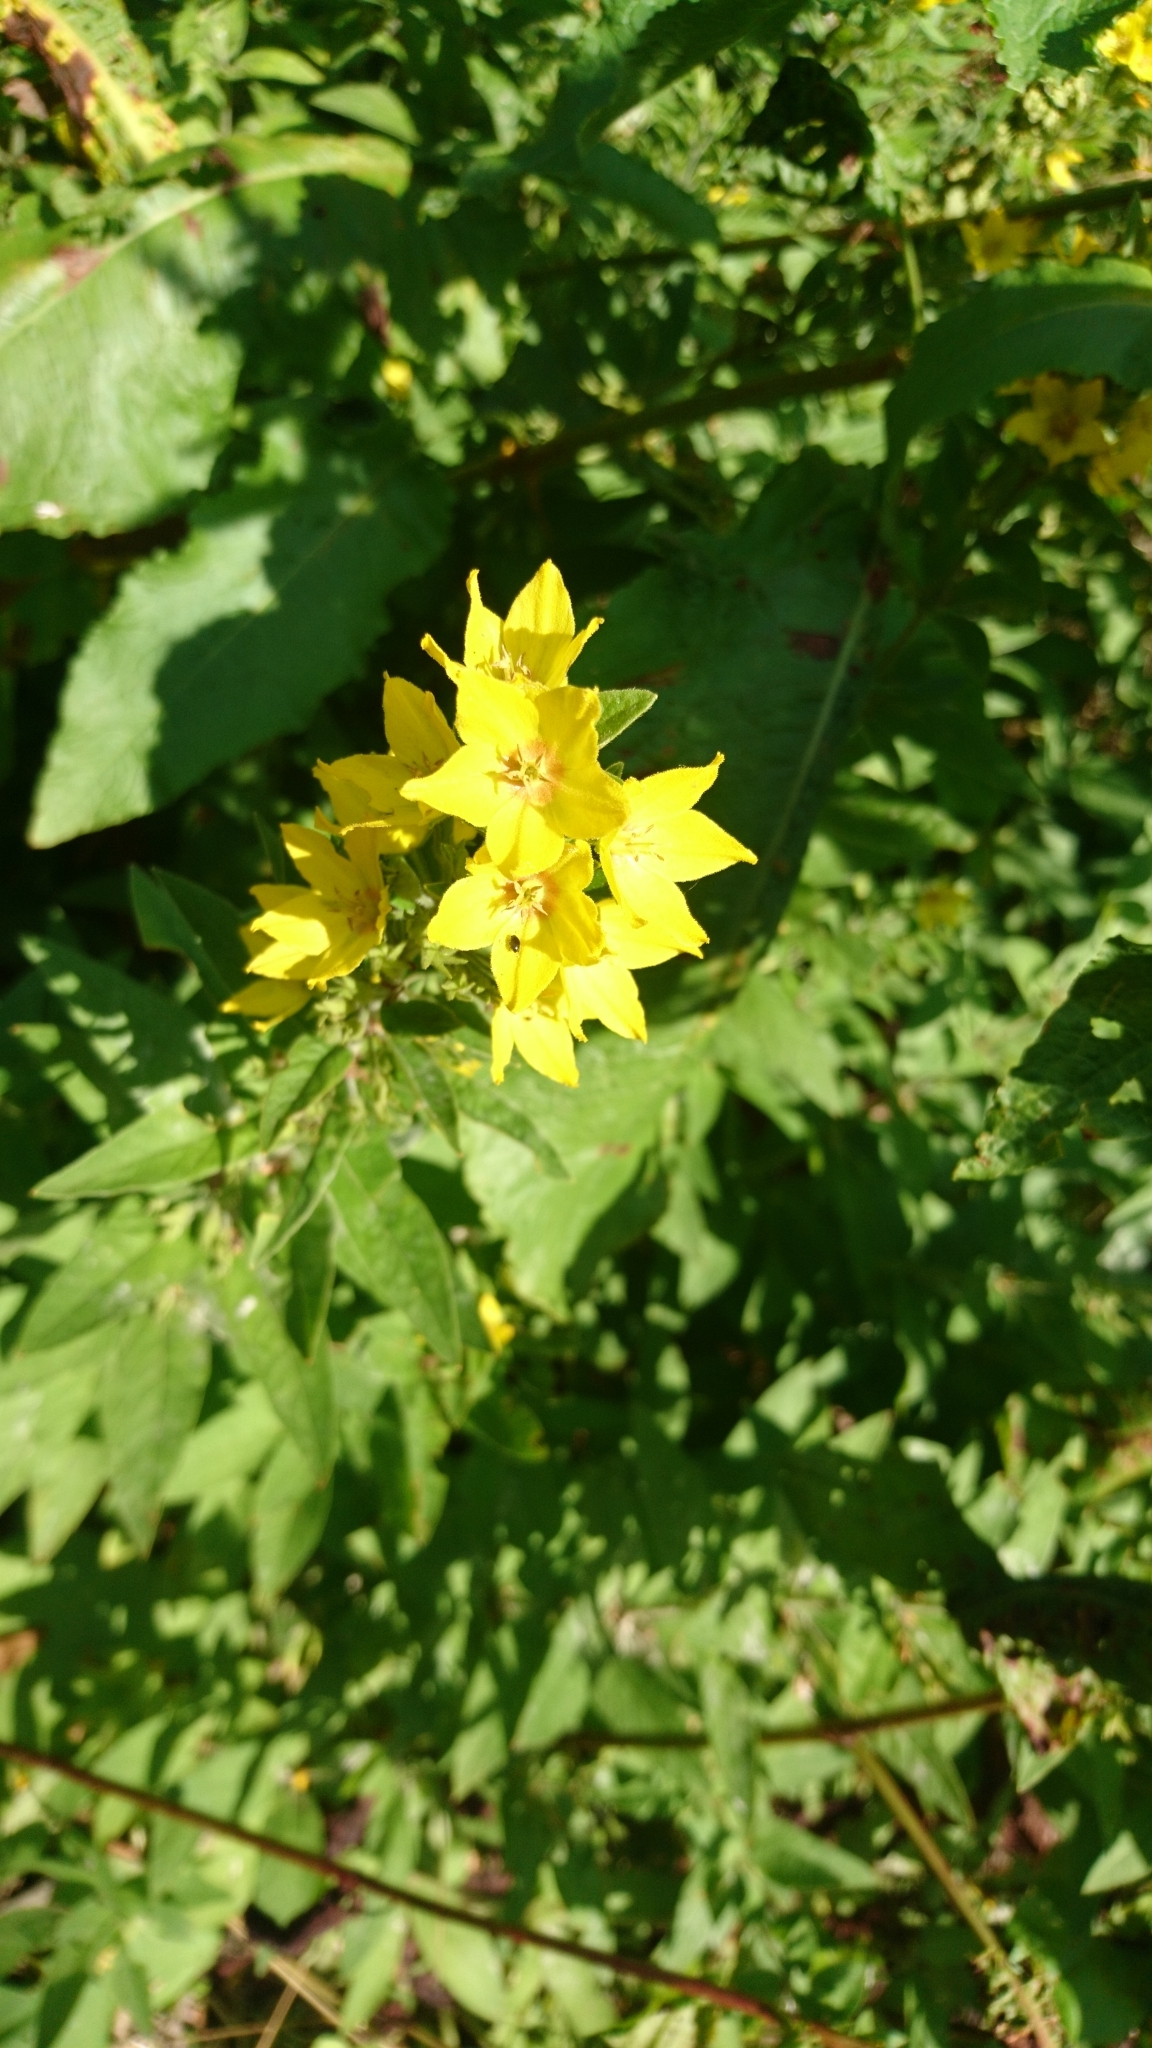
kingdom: Plantae
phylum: Tracheophyta
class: Magnoliopsida
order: Ericales
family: Primulaceae
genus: Lysimachia
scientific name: Lysimachia punctata
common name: Dotted loosestrife
